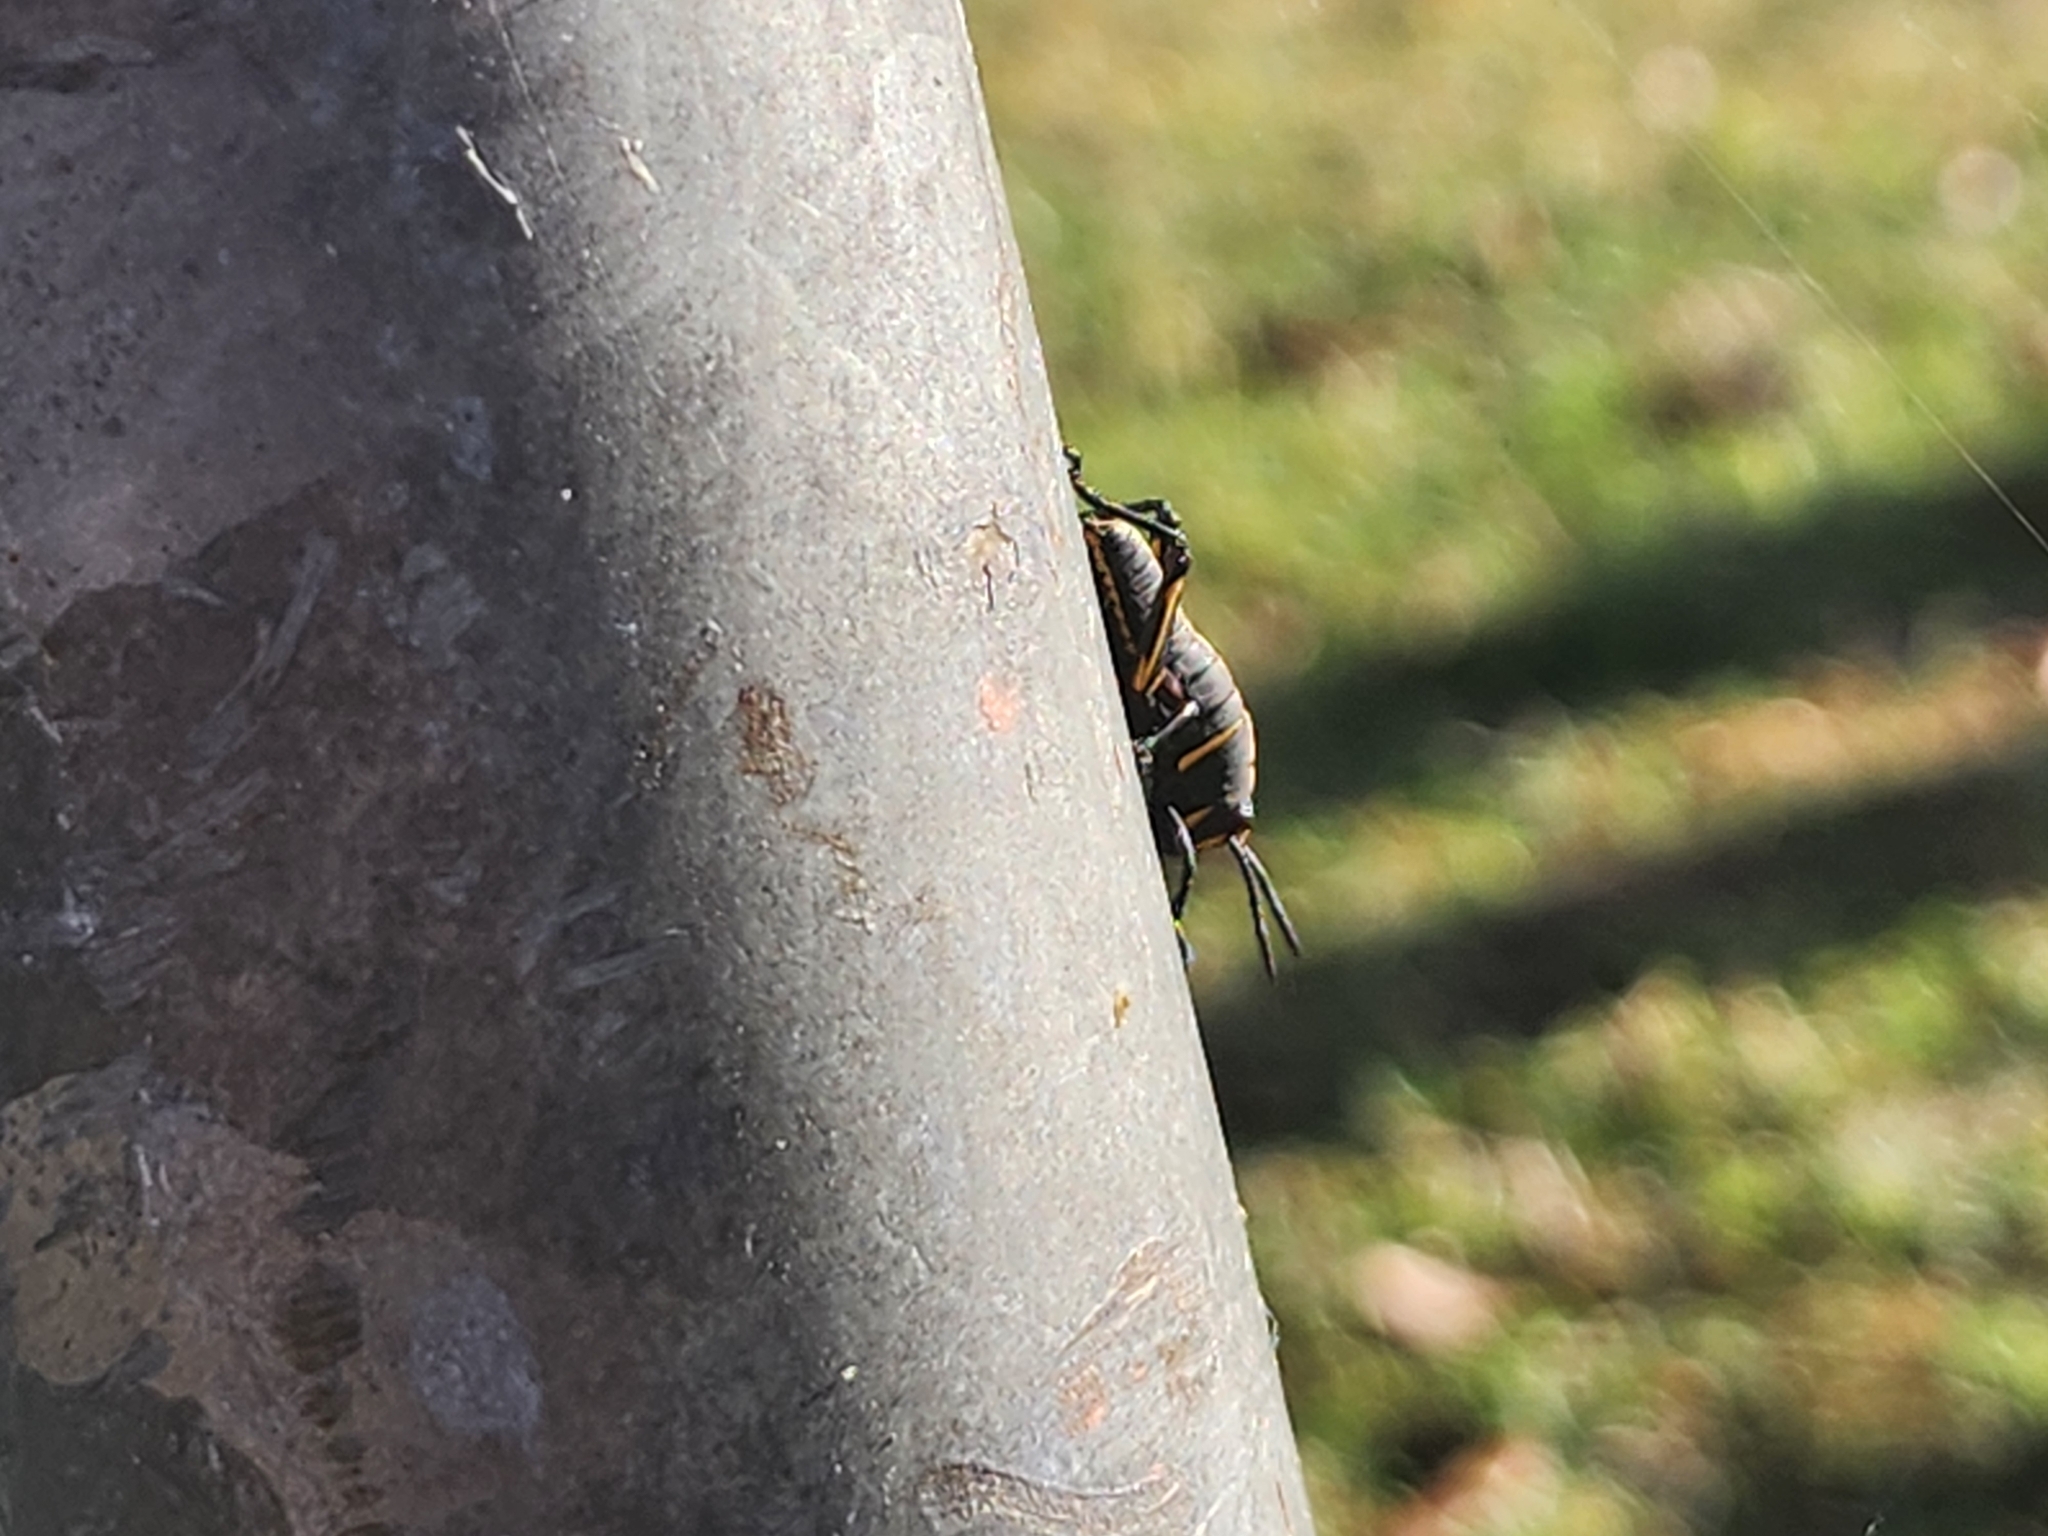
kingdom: Animalia
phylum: Arthropoda
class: Insecta
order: Orthoptera
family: Romaleidae
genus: Romalea
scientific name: Romalea microptera
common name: Eastern lubber grasshopper
